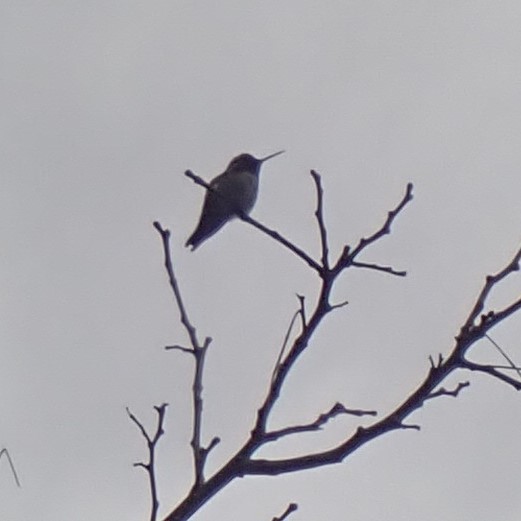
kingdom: Animalia
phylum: Chordata
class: Aves
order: Apodiformes
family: Trochilidae
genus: Calypte
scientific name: Calypte anna
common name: Anna's hummingbird
